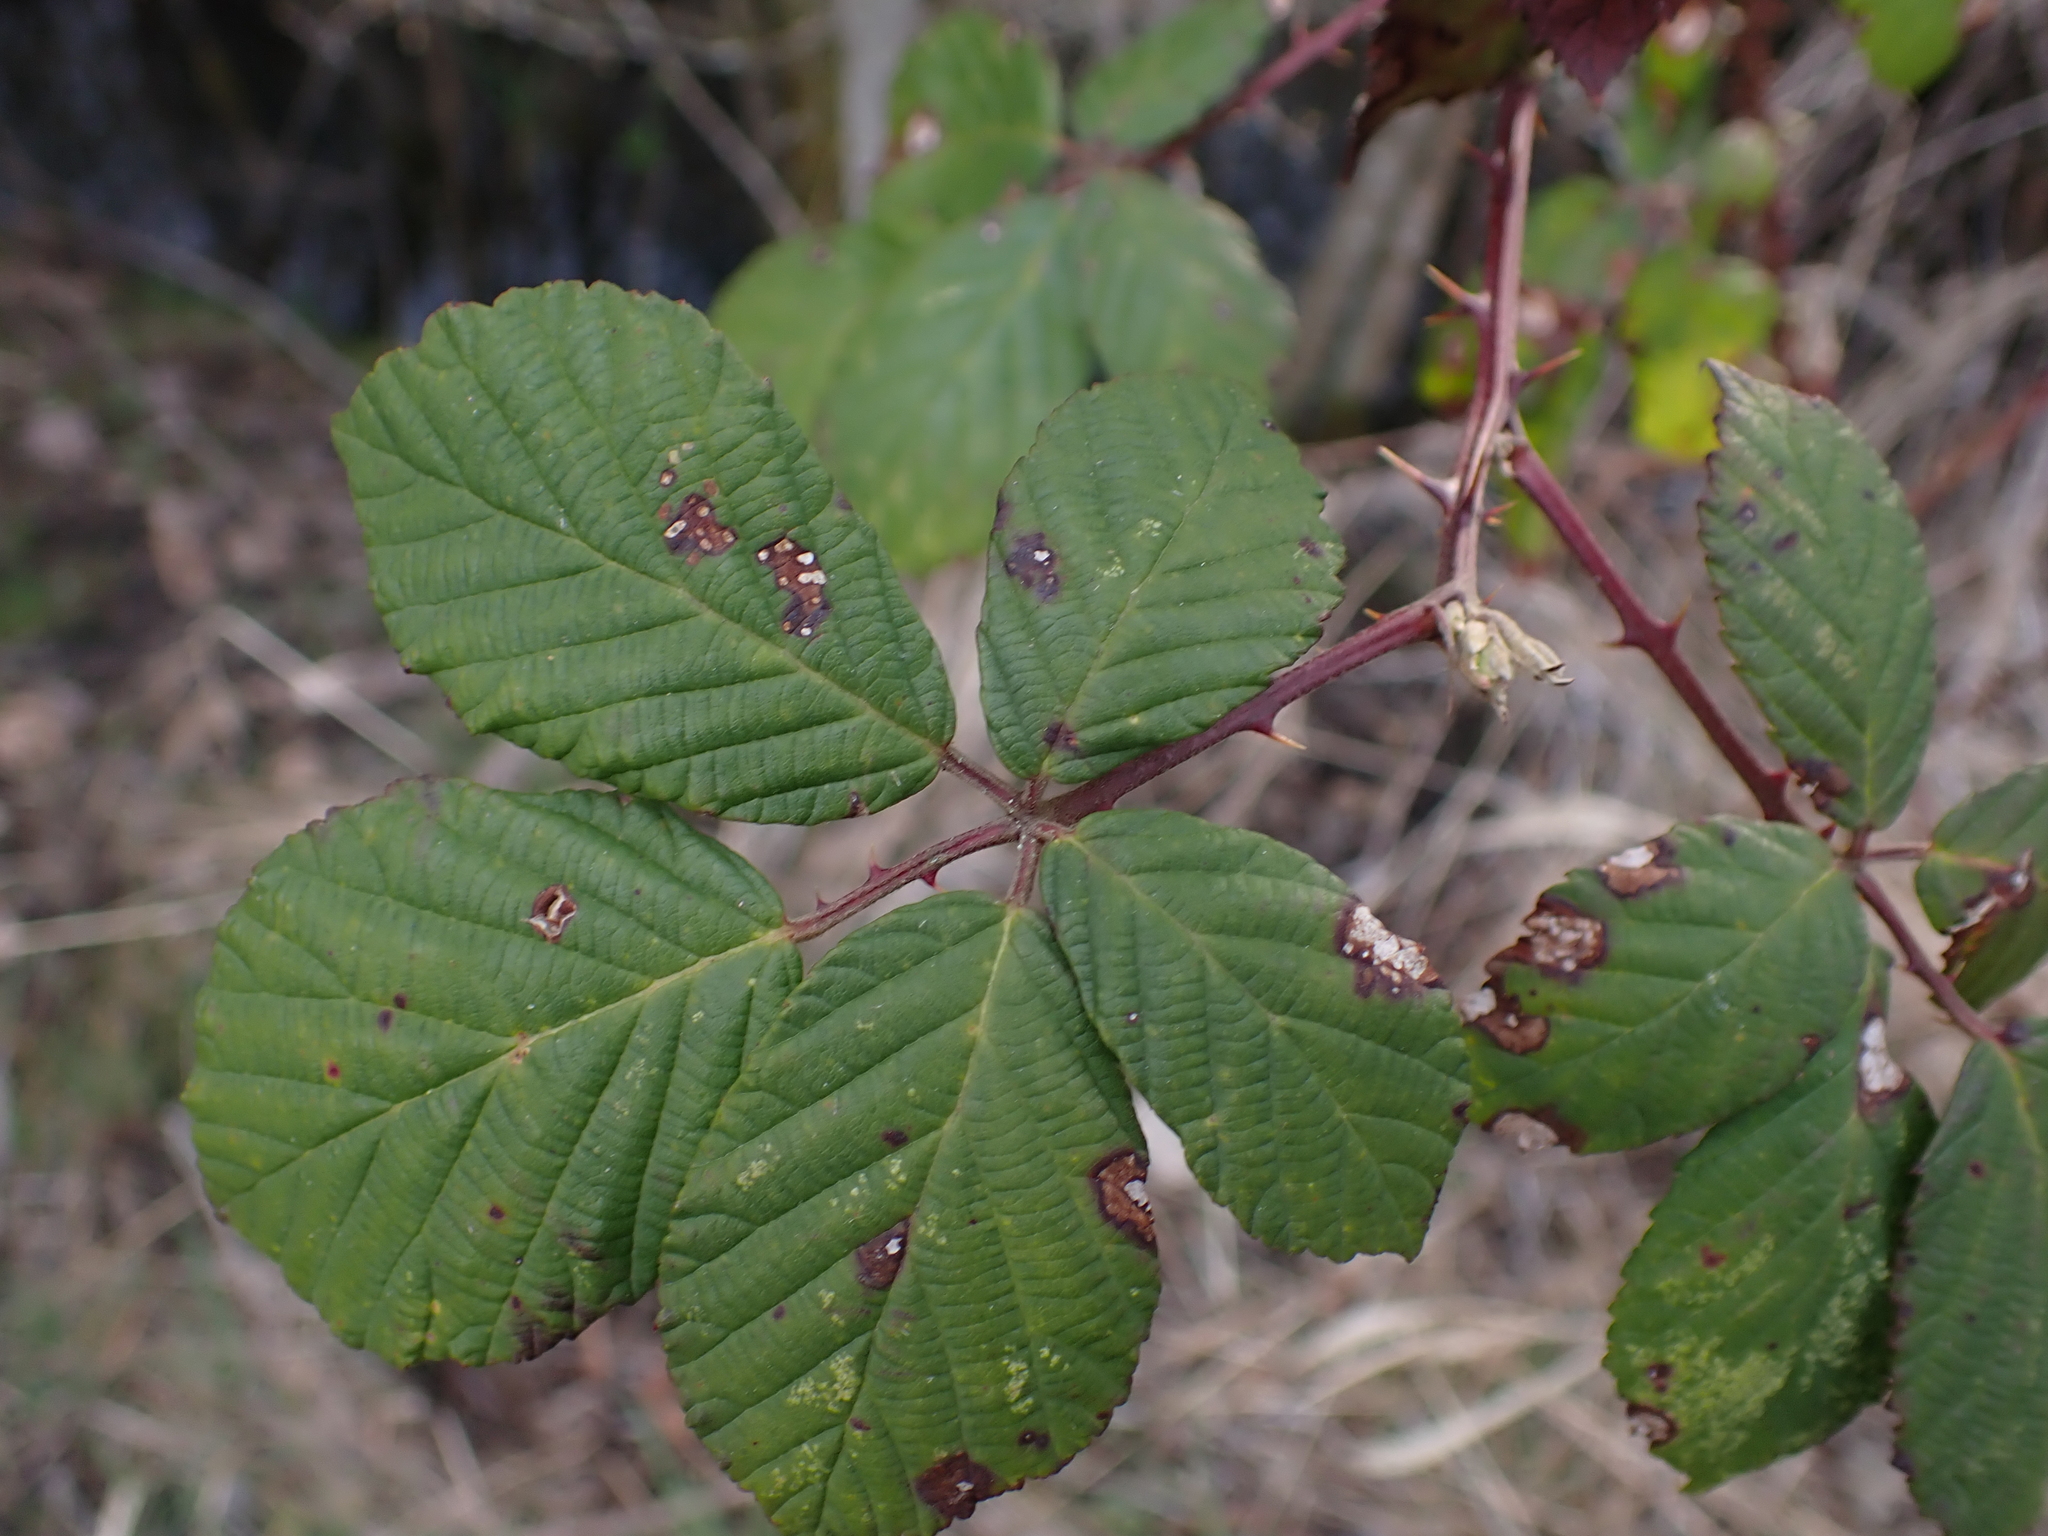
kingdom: Plantae
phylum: Tracheophyta
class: Magnoliopsida
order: Rosales
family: Rosaceae
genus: Rubus
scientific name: Rubus bifrons
